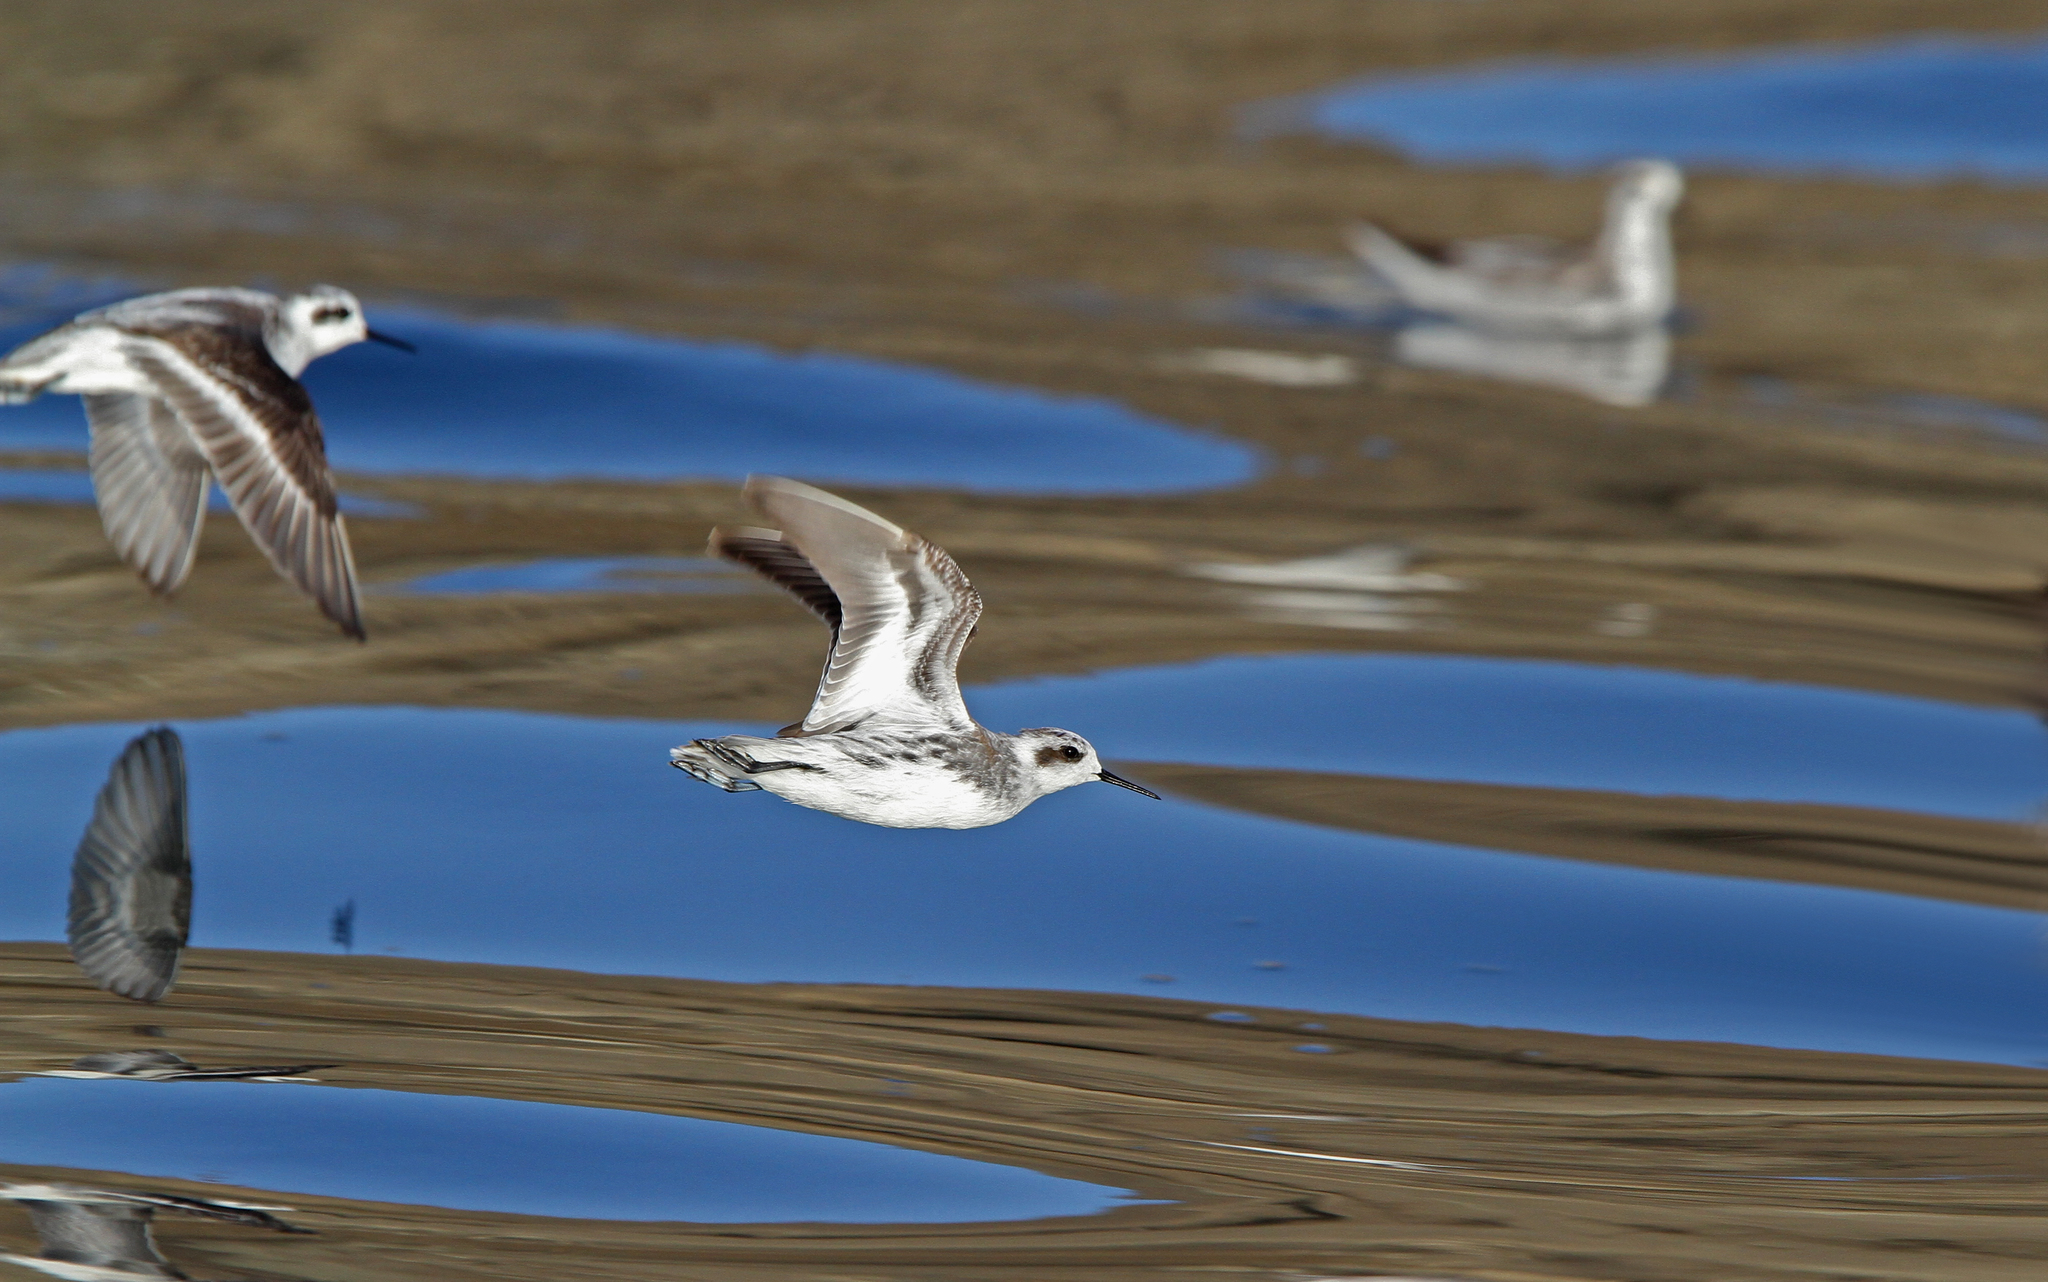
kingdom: Animalia
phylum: Chordata
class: Aves
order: Charadriiformes
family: Scolopacidae
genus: Phalaropus
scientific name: Phalaropus lobatus
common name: Red-necked phalarope
